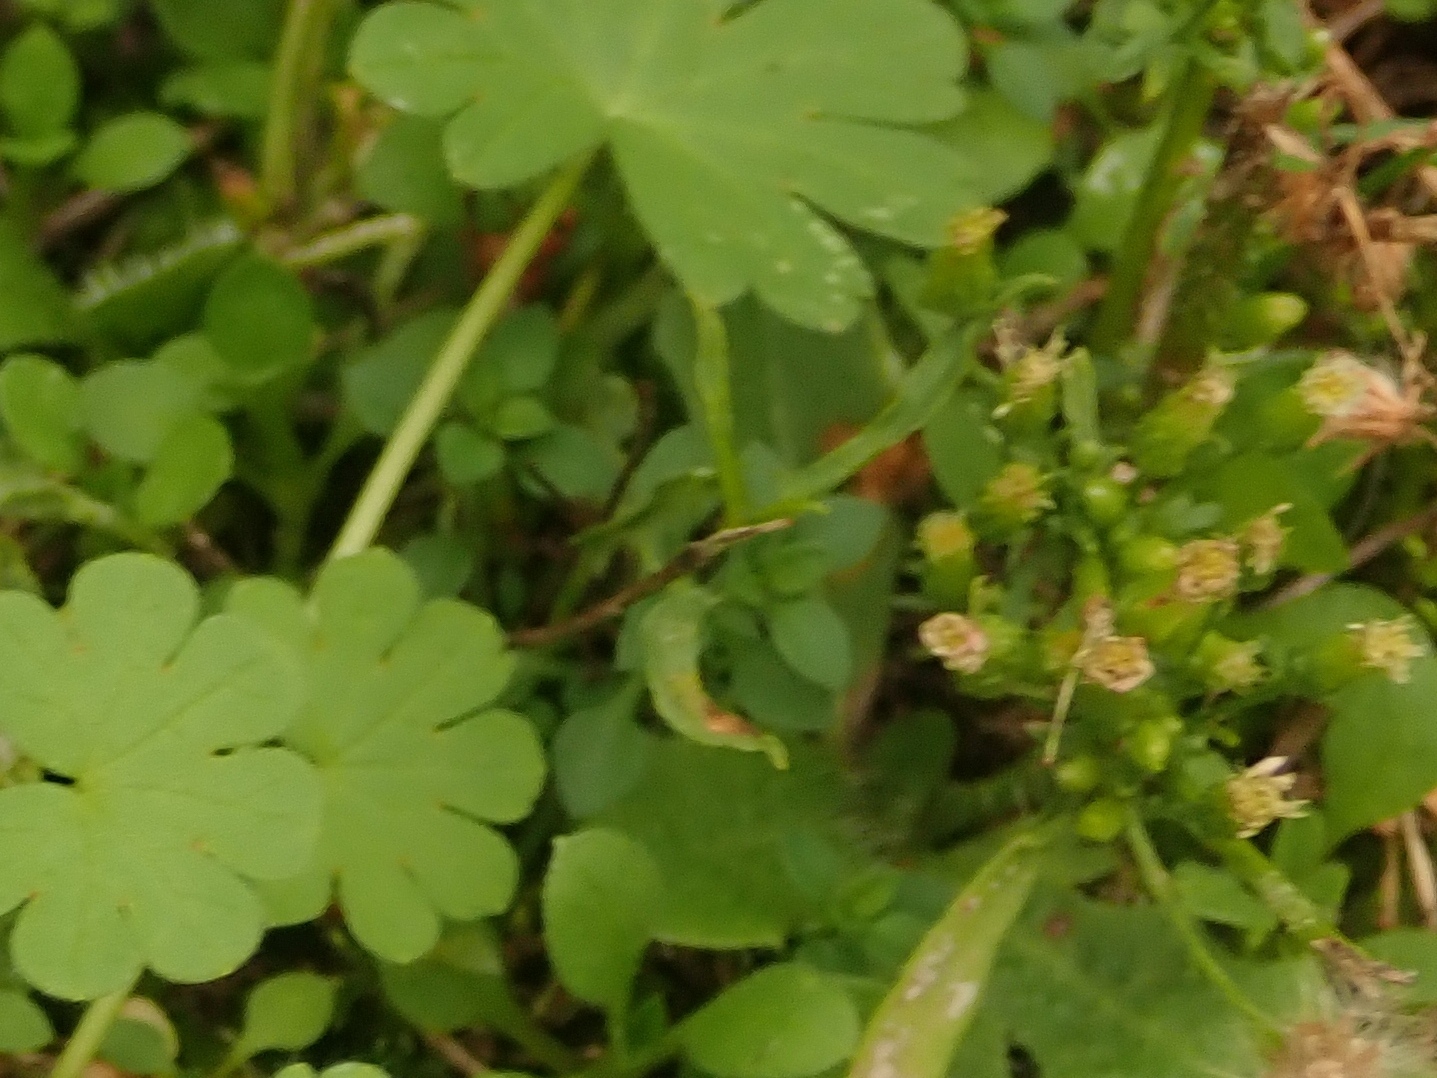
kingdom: Plantae
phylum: Tracheophyta
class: Magnoliopsida
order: Asterales
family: Asteraceae
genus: Erigeron
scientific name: Erigeron canadensis
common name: Canadian fleabane
